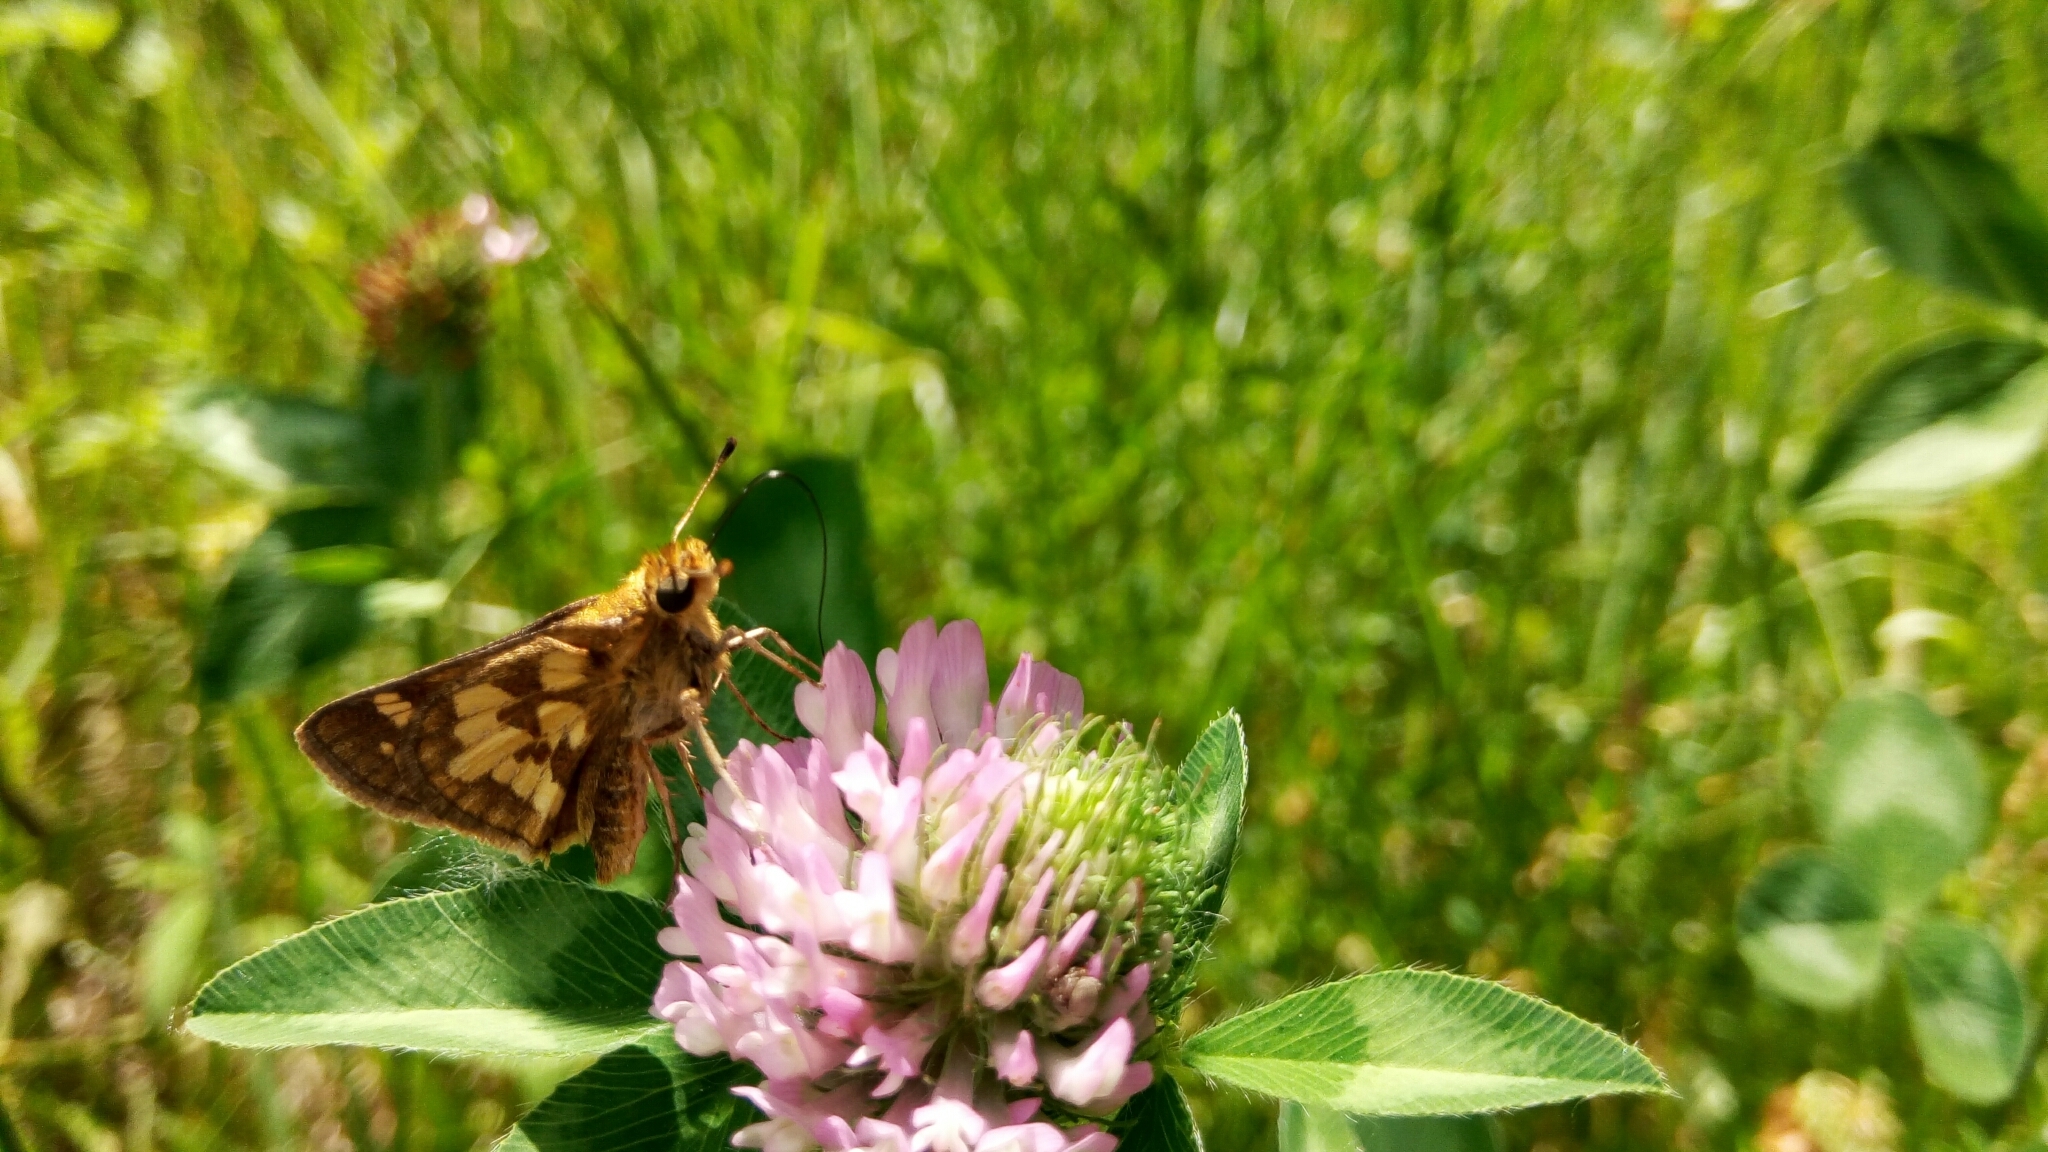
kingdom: Animalia
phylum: Arthropoda
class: Insecta
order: Lepidoptera
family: Hesperiidae
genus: Polites
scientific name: Polites coras
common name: Peck's skipper
